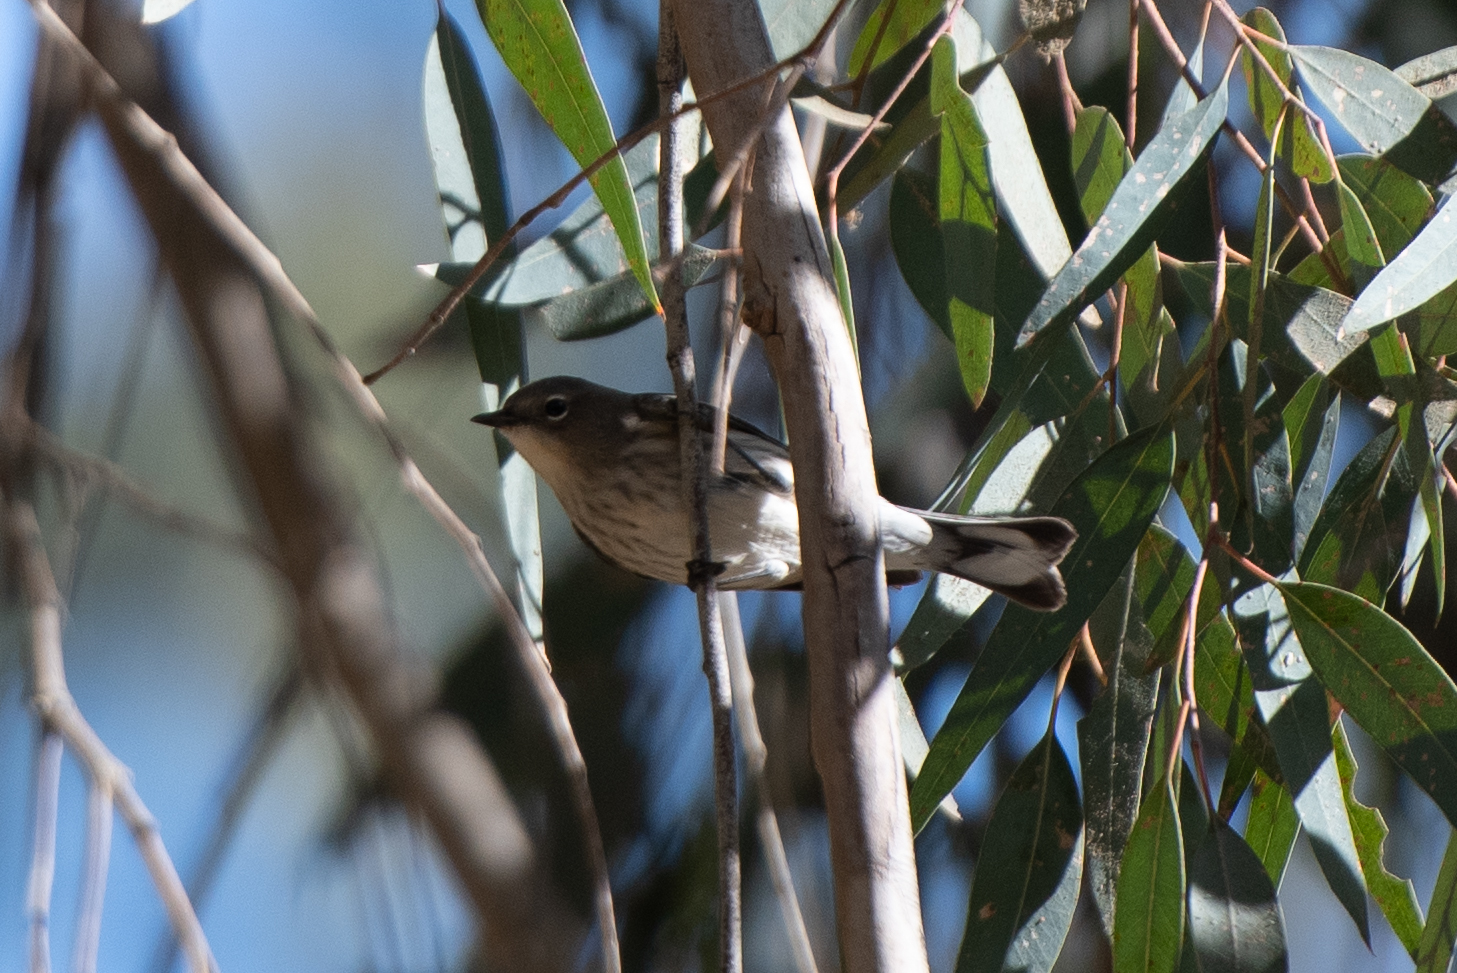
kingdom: Animalia
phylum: Chordata
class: Aves
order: Passeriformes
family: Parulidae
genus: Setophaga
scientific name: Setophaga coronata
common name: Myrtle warbler
